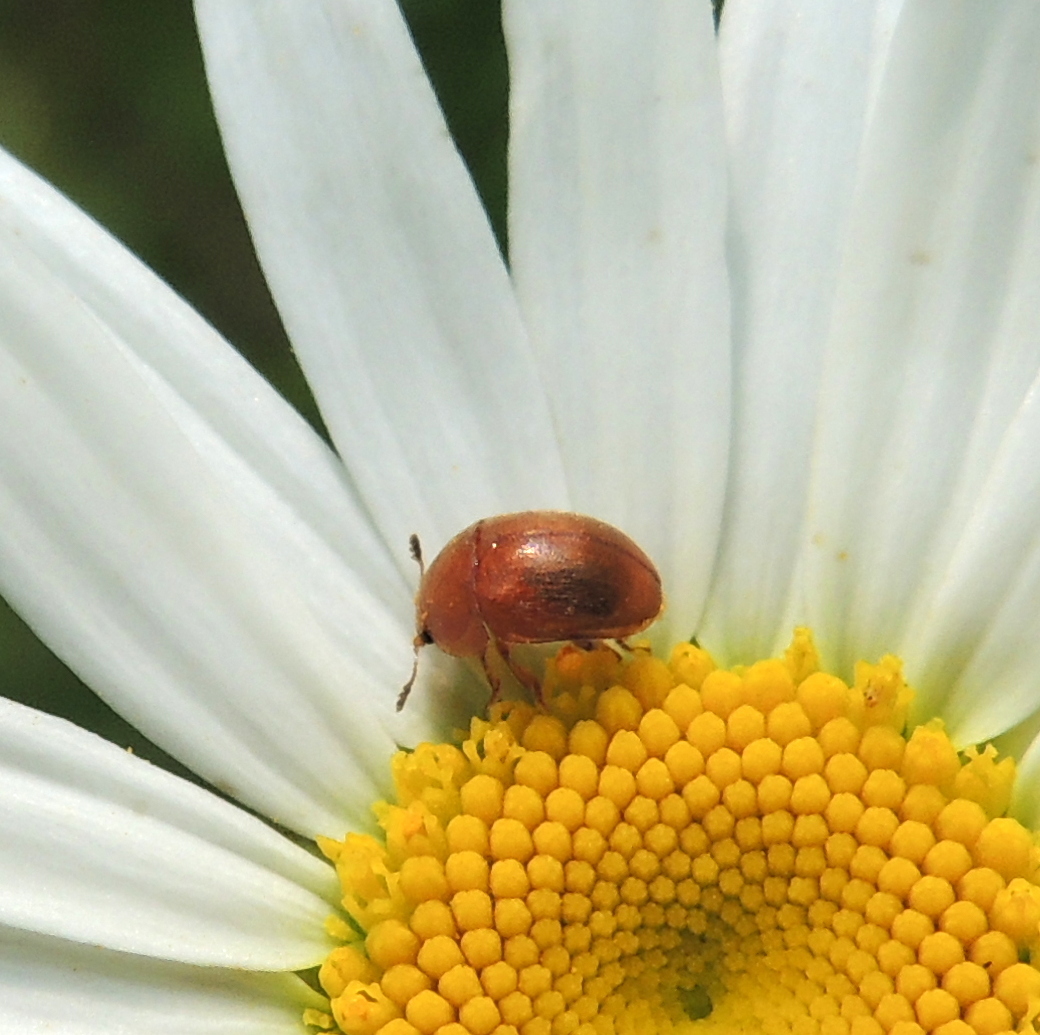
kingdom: Animalia
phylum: Arthropoda
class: Insecta
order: Coleoptera
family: Nitidulidae
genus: Cychramus
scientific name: Cychramus luteus
